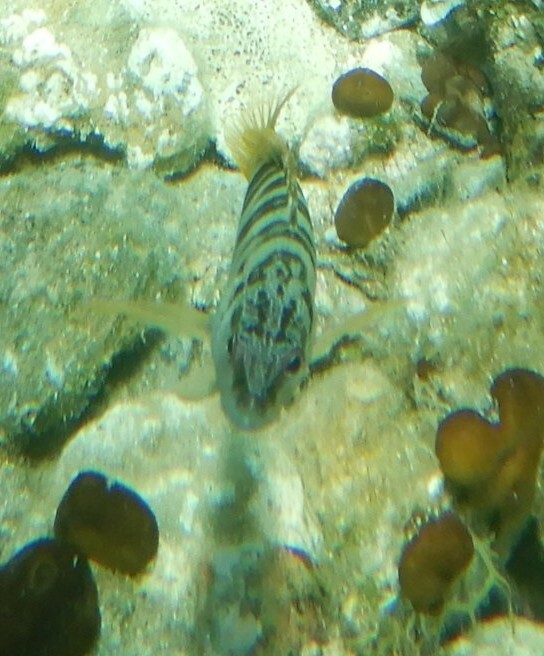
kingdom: Animalia
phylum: Chordata
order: Perciformes
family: Serranidae
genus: Serranus
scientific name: Serranus scriba
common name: Painted comber
